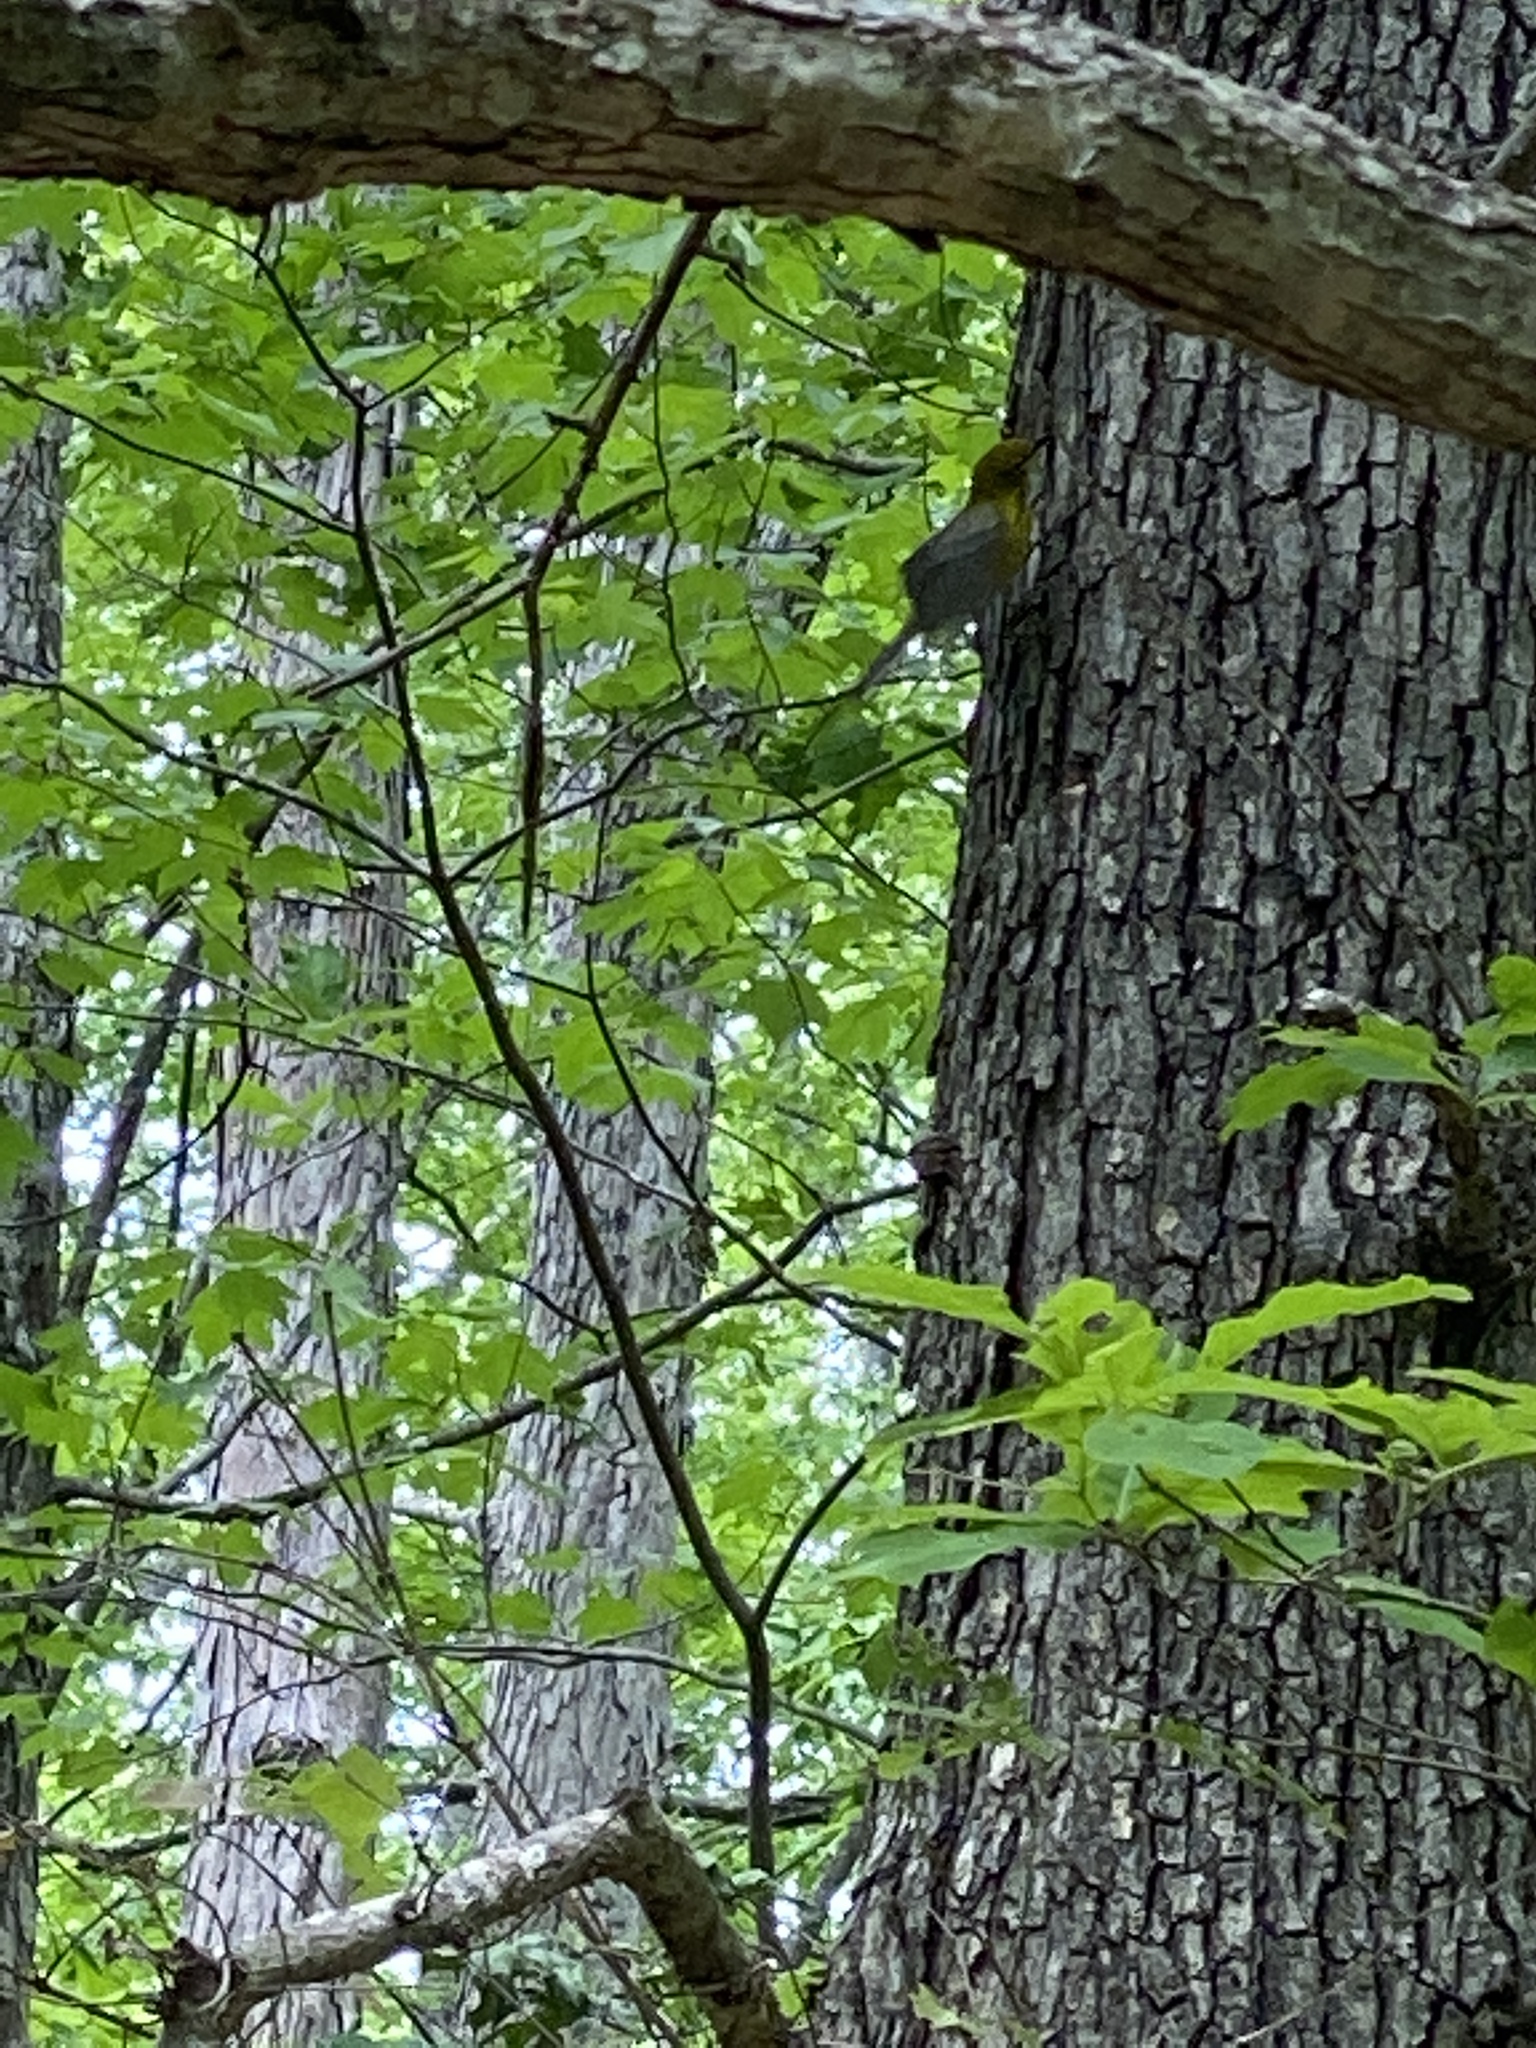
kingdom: Animalia
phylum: Chordata
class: Aves
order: Passeriformes
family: Parulidae
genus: Setophaga
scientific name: Setophaga pinus
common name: Pine warbler
